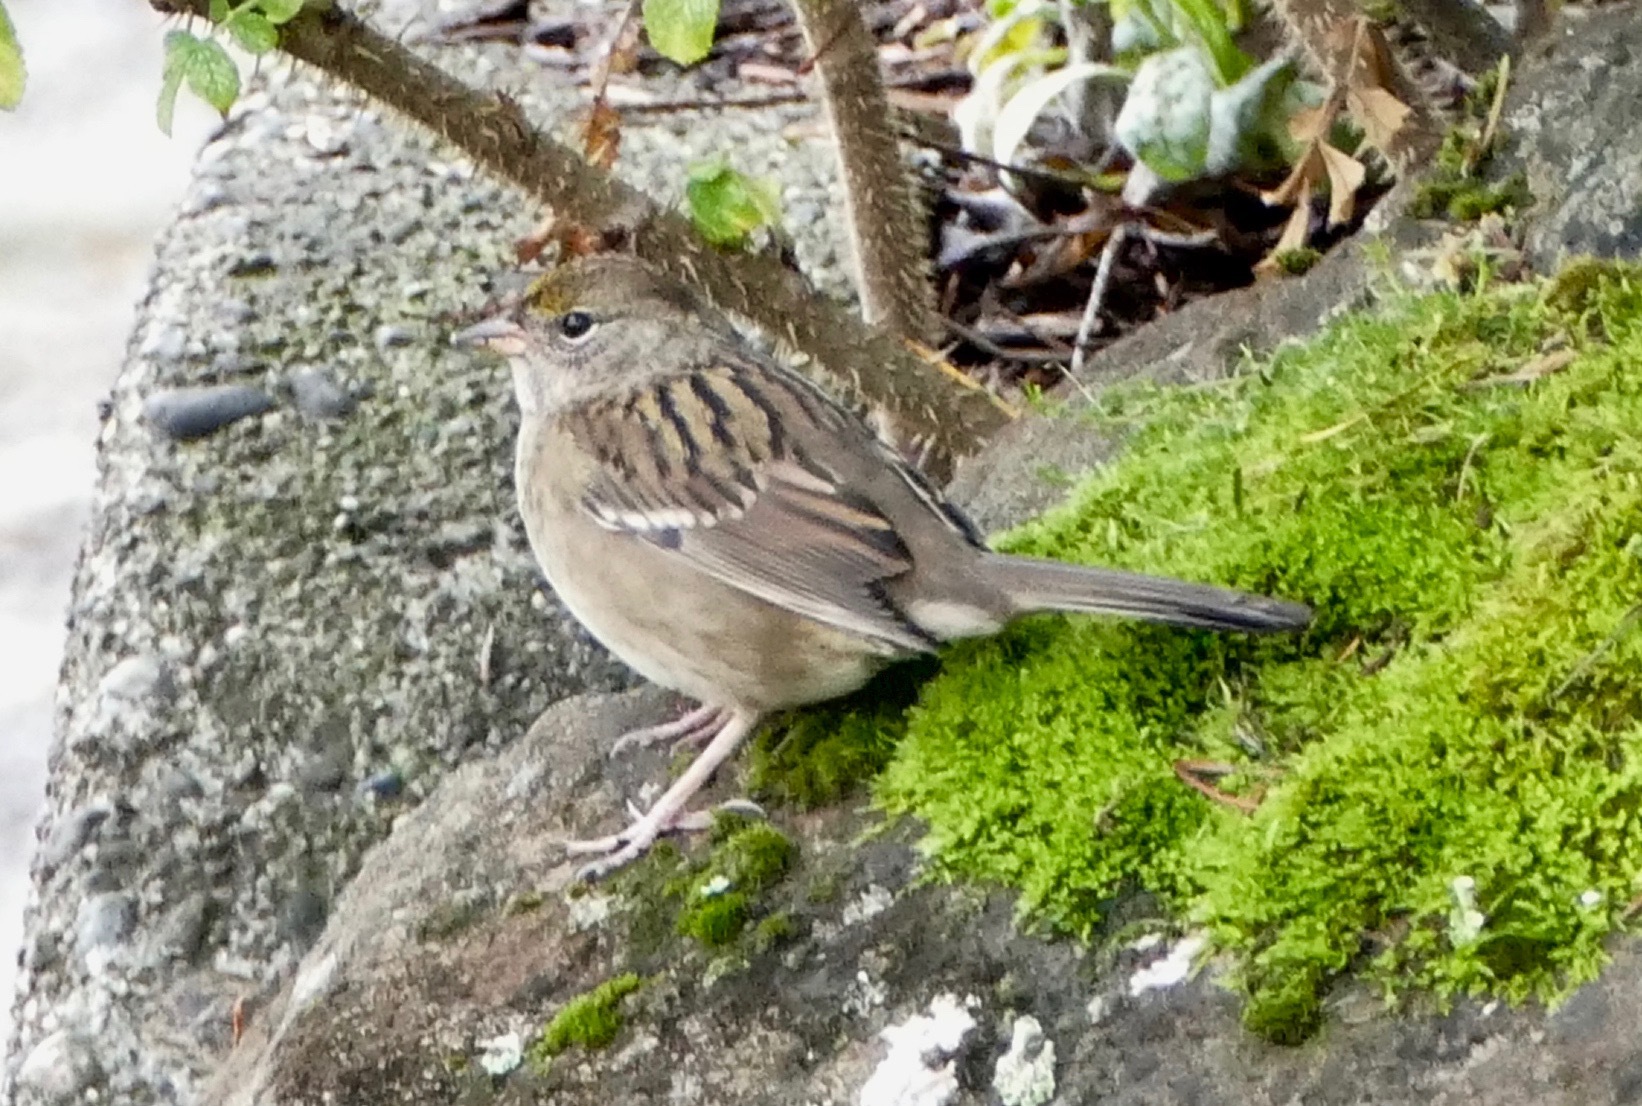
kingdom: Animalia
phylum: Chordata
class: Aves
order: Passeriformes
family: Passerellidae
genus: Zonotrichia
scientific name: Zonotrichia atricapilla
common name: Golden-crowned sparrow
